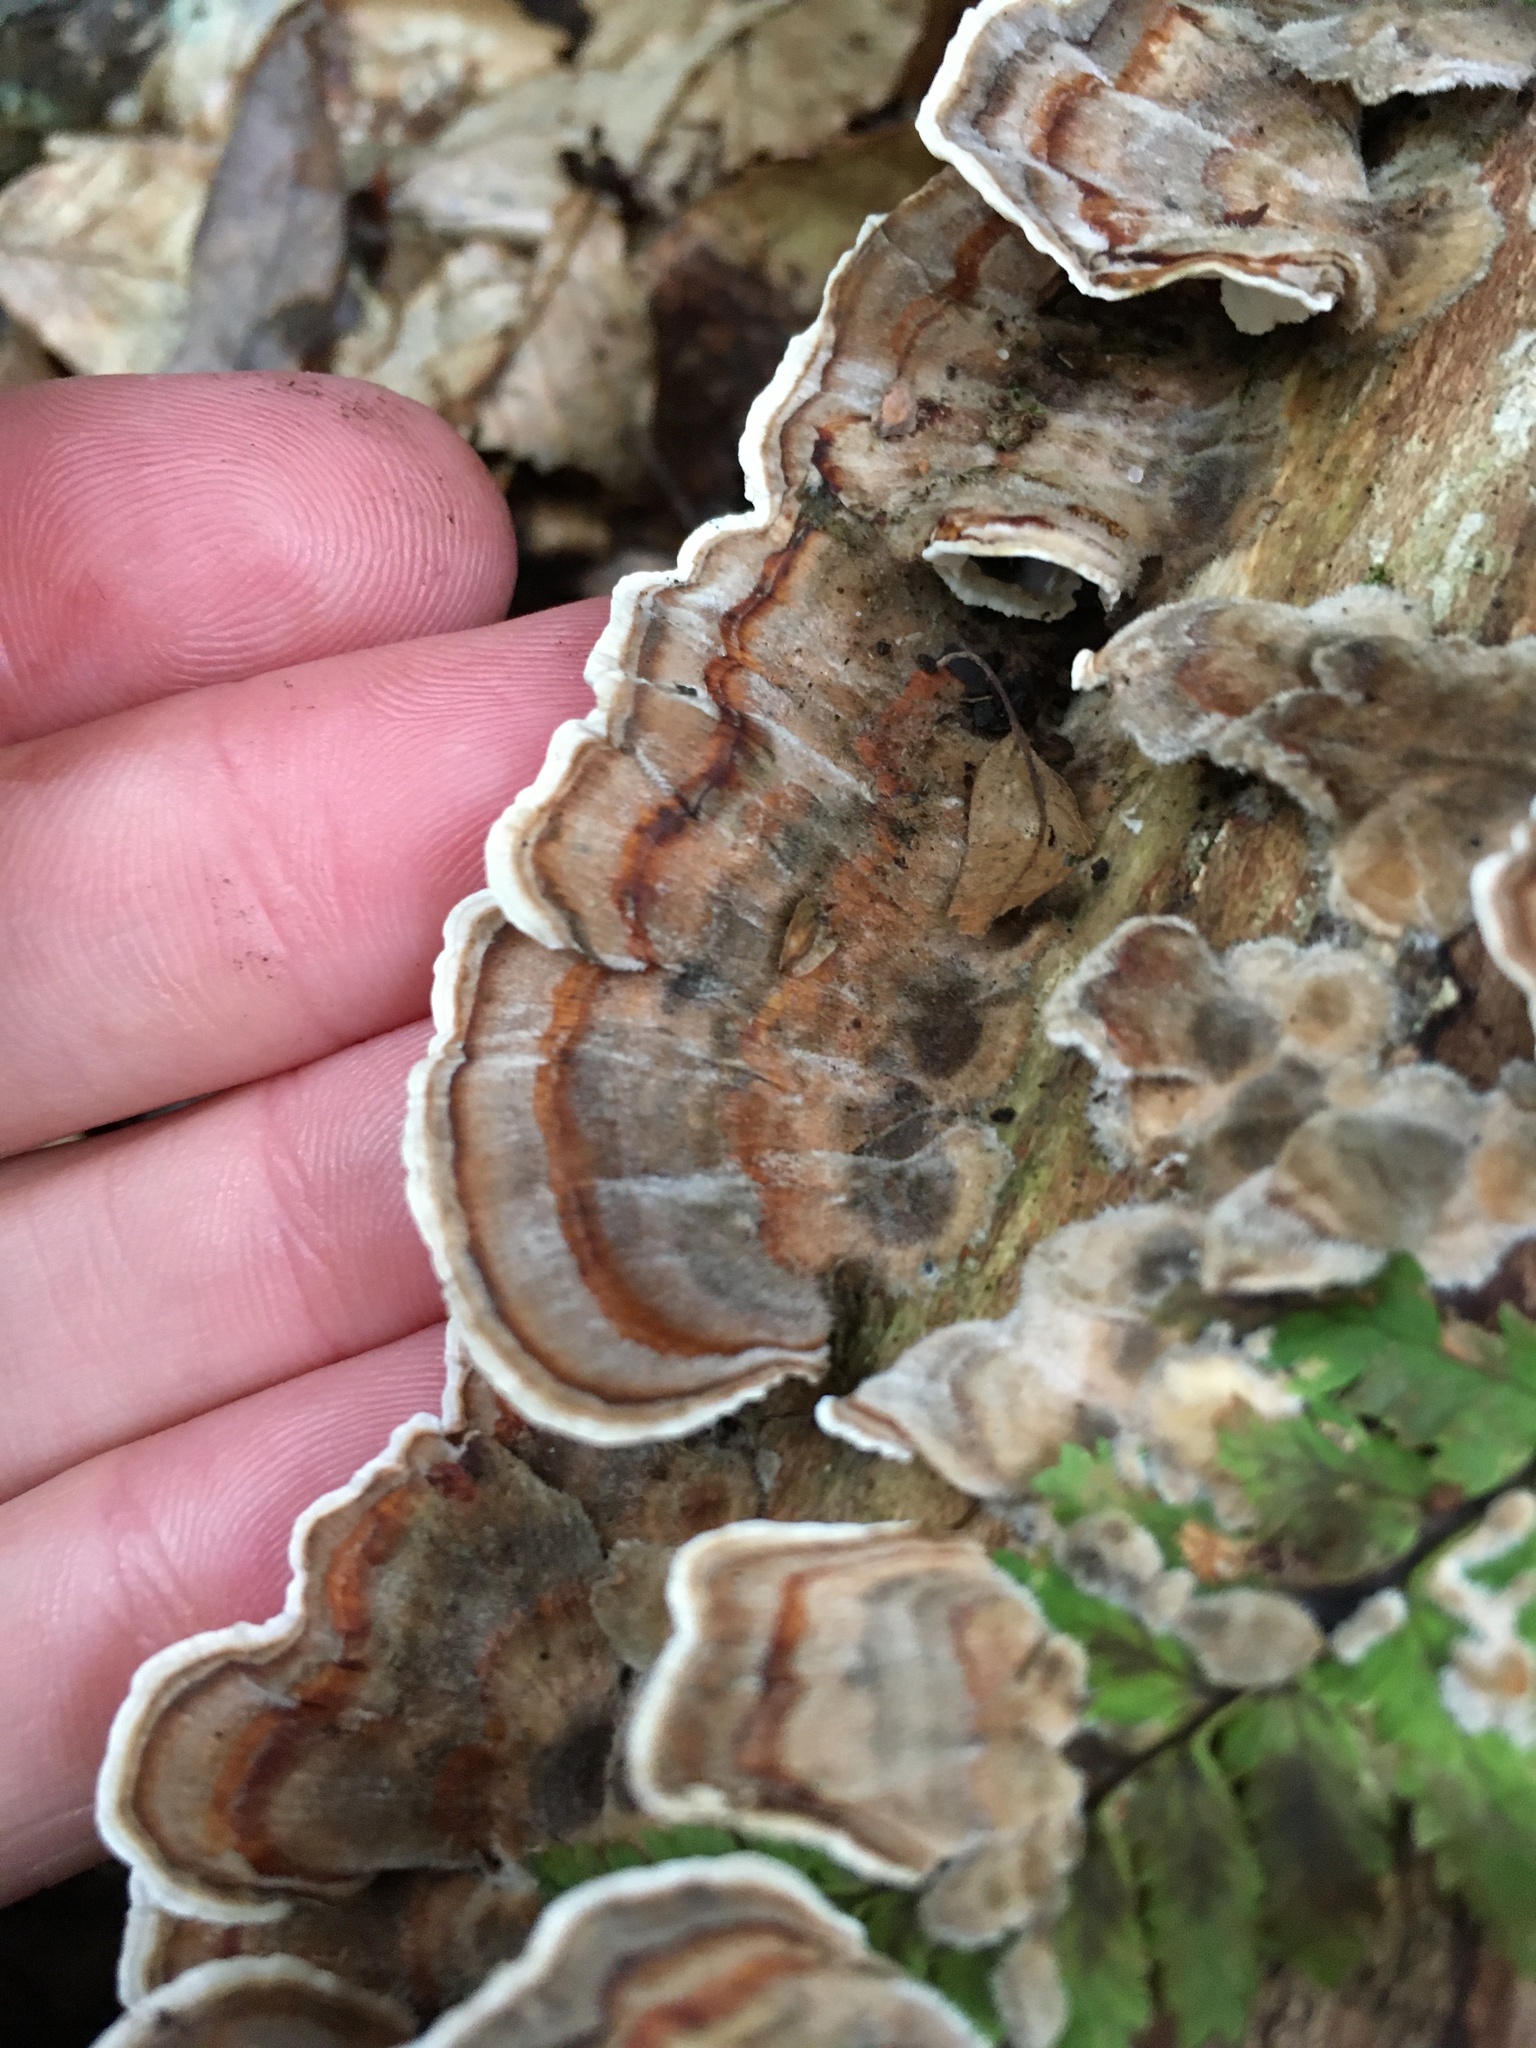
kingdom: Fungi
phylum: Basidiomycota
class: Agaricomycetes
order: Polyporales
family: Polyporaceae
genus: Trametes
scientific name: Trametes versicolor
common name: Turkeytail
